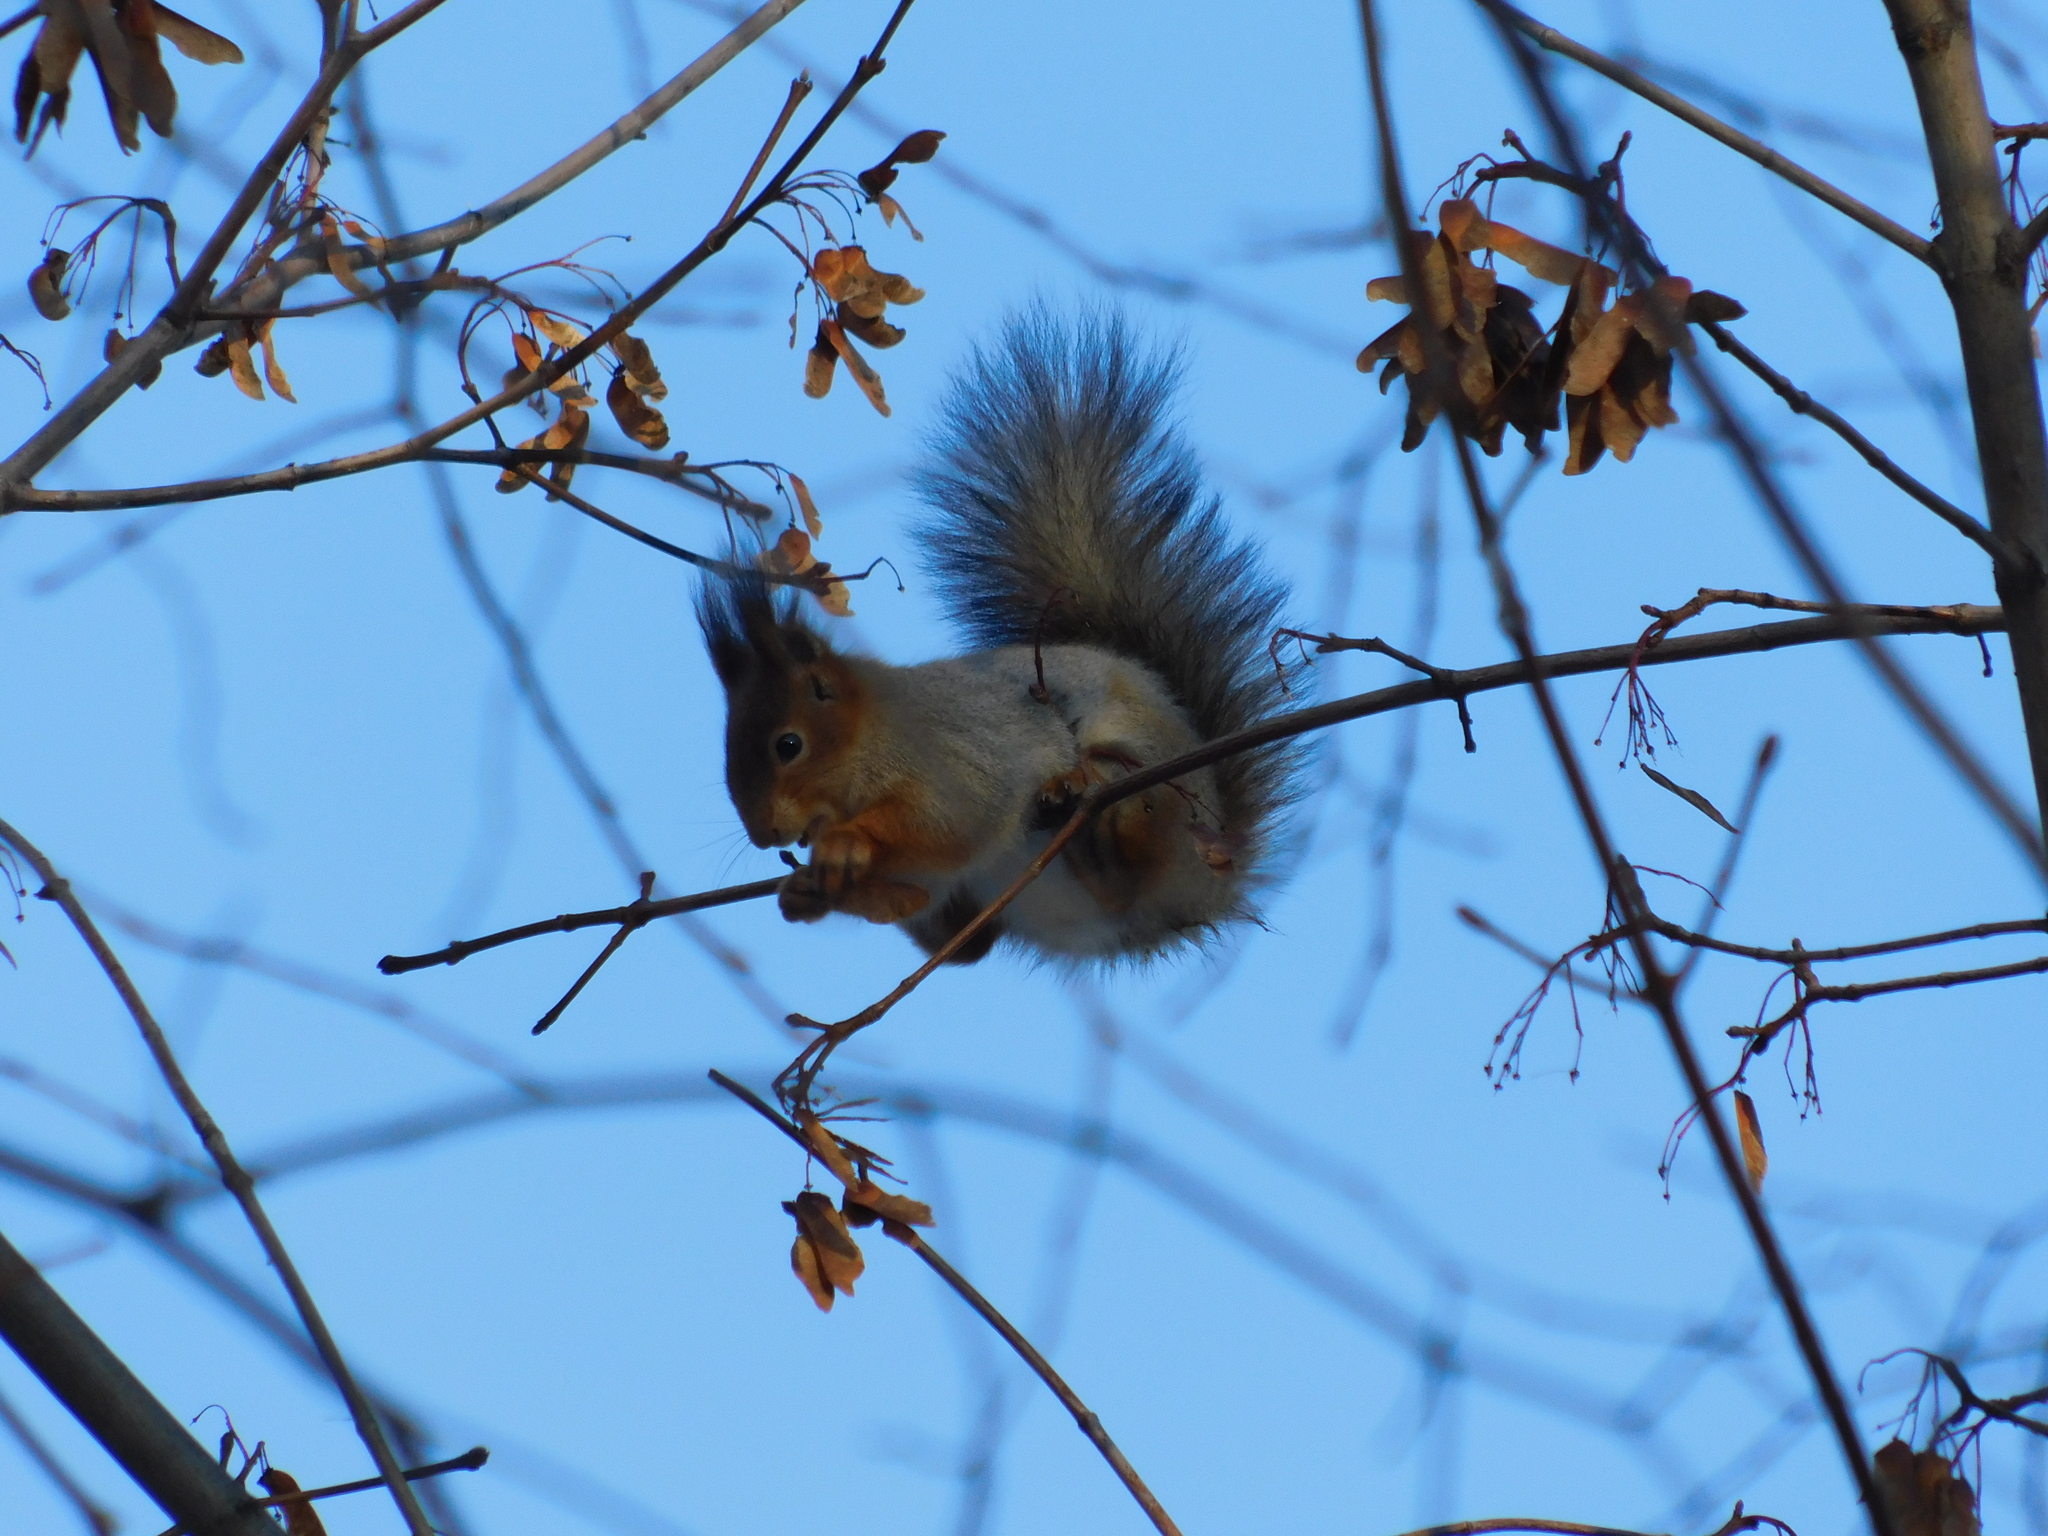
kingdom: Animalia
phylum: Chordata
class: Mammalia
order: Rodentia
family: Sciuridae
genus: Sciurus
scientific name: Sciurus vulgaris
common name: Eurasian red squirrel
